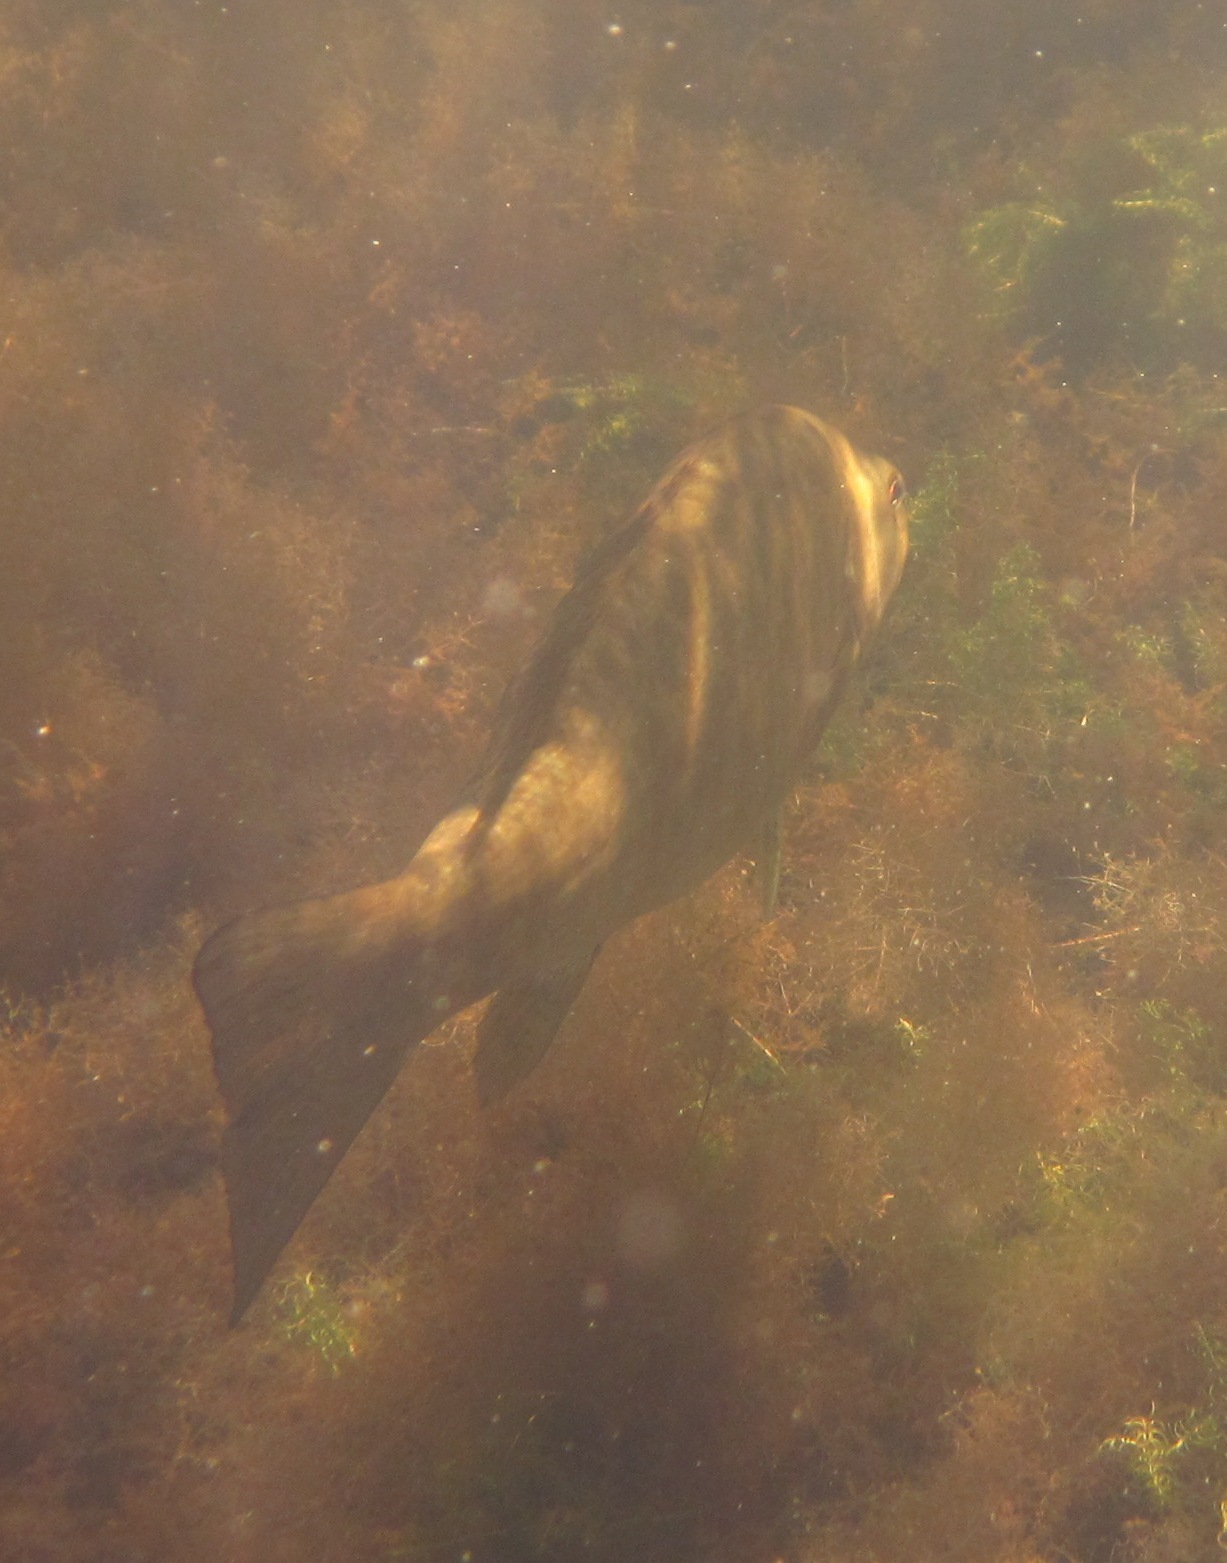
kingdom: Animalia
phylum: Chordata
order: Perciformes
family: Centrarchidae
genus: Micropterus
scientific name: Micropterus dolomieu
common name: Smallmouth bass
